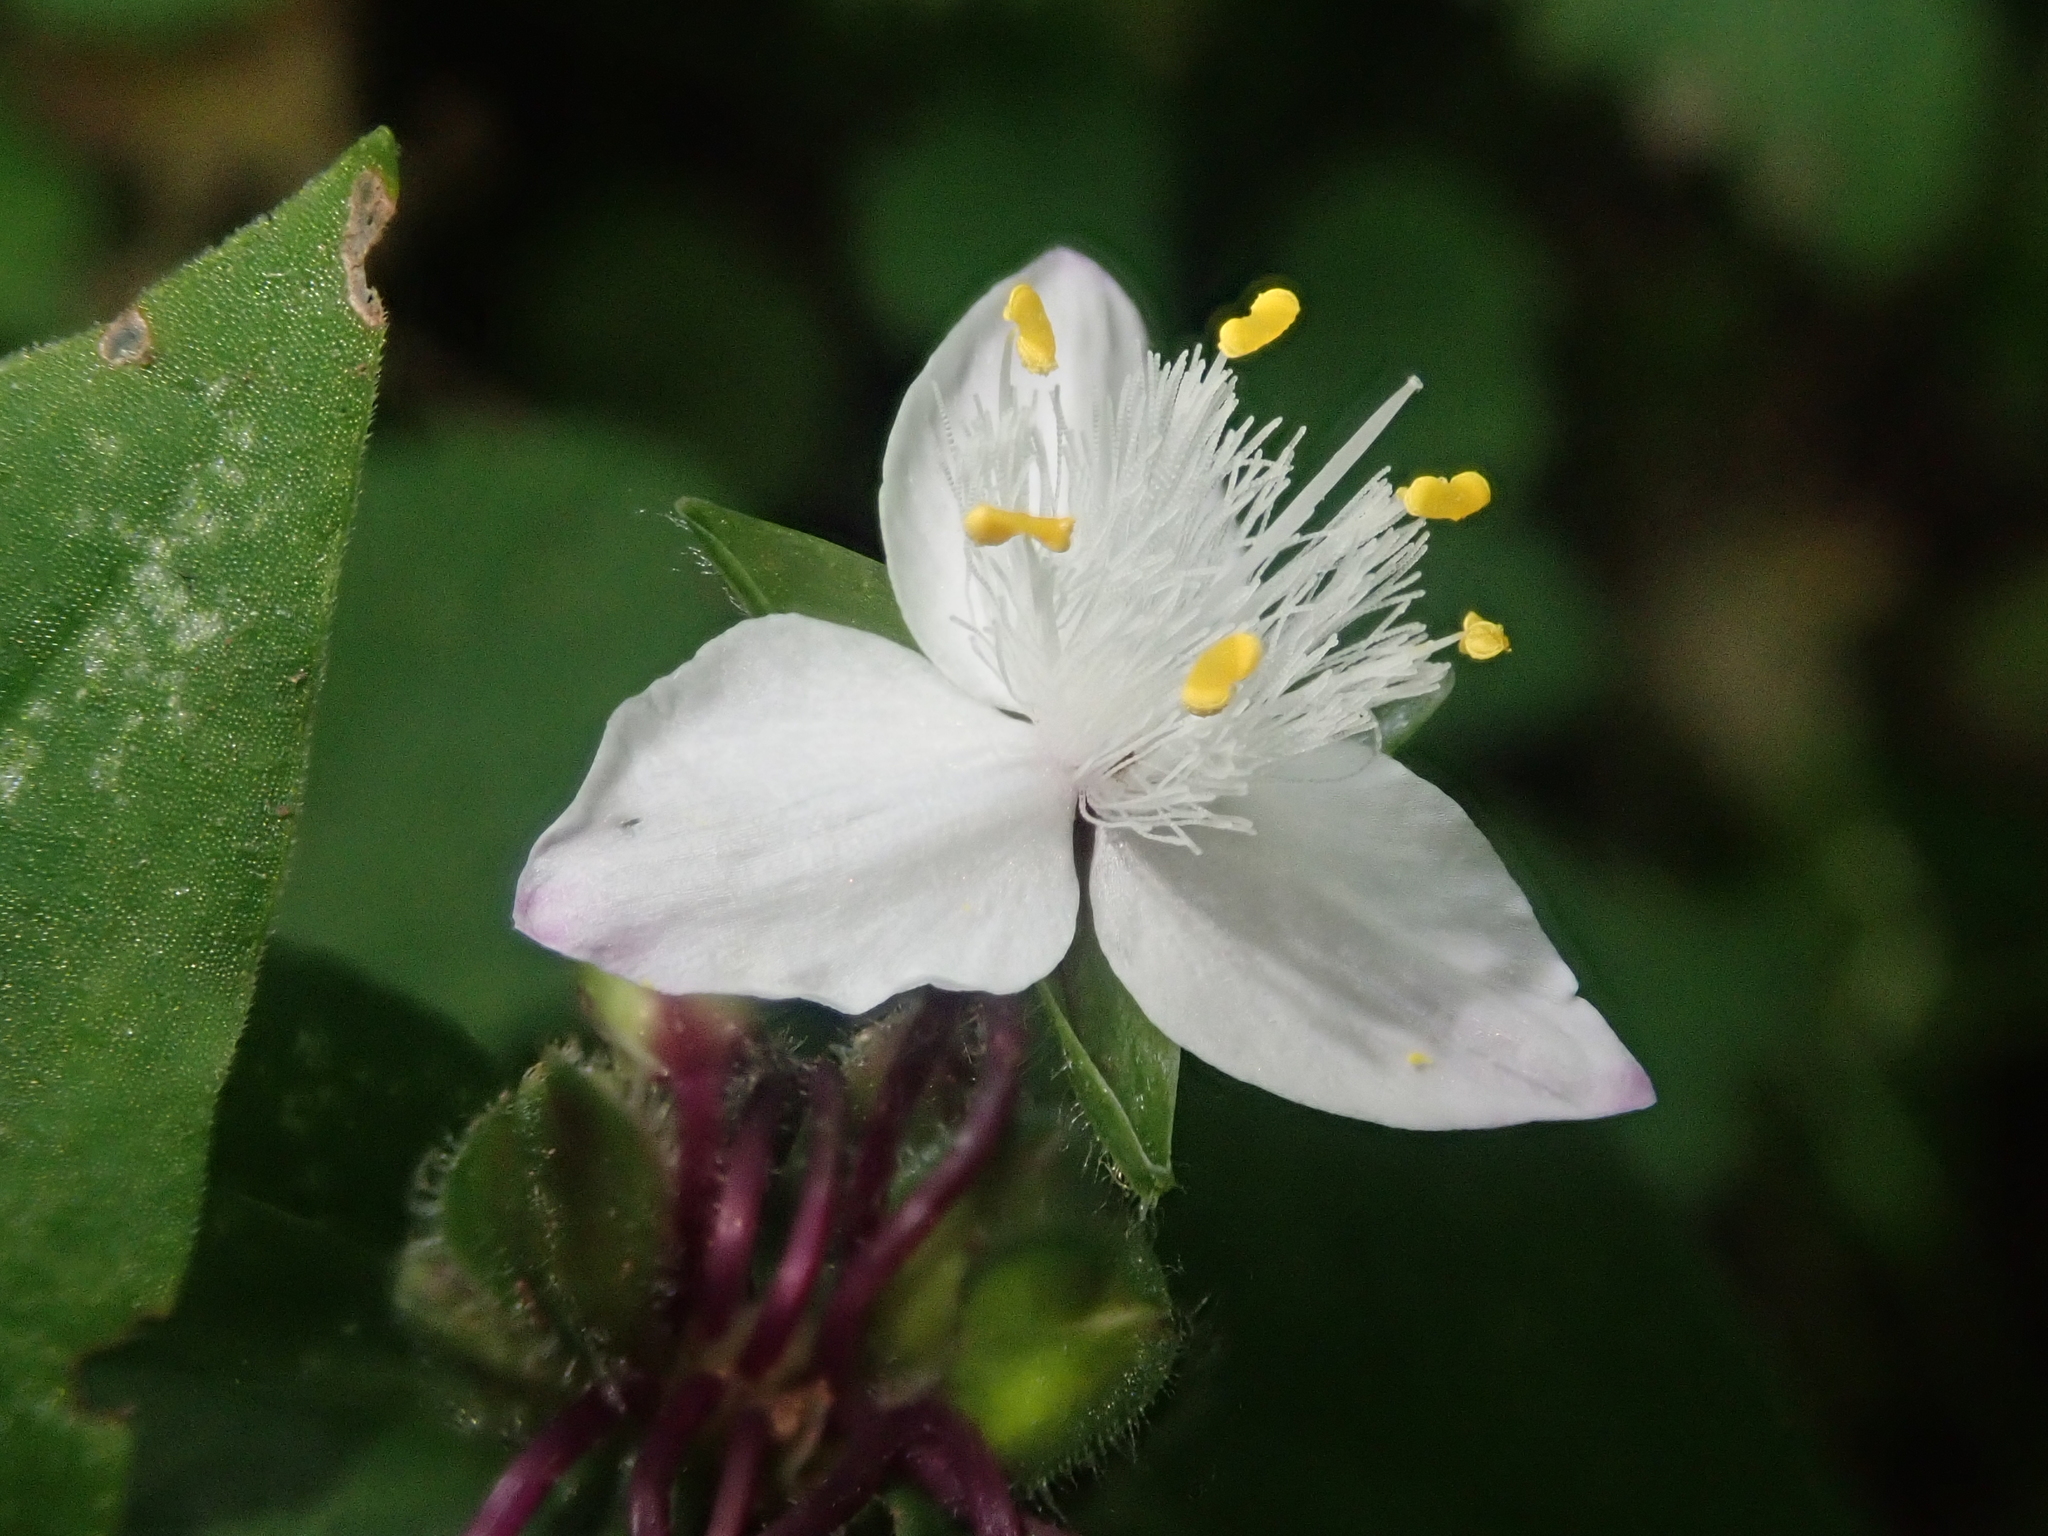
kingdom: Plantae
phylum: Tracheophyta
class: Liliopsida
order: Commelinales
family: Commelinaceae
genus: Tradescantia
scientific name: Tradescantia tucumanensis
